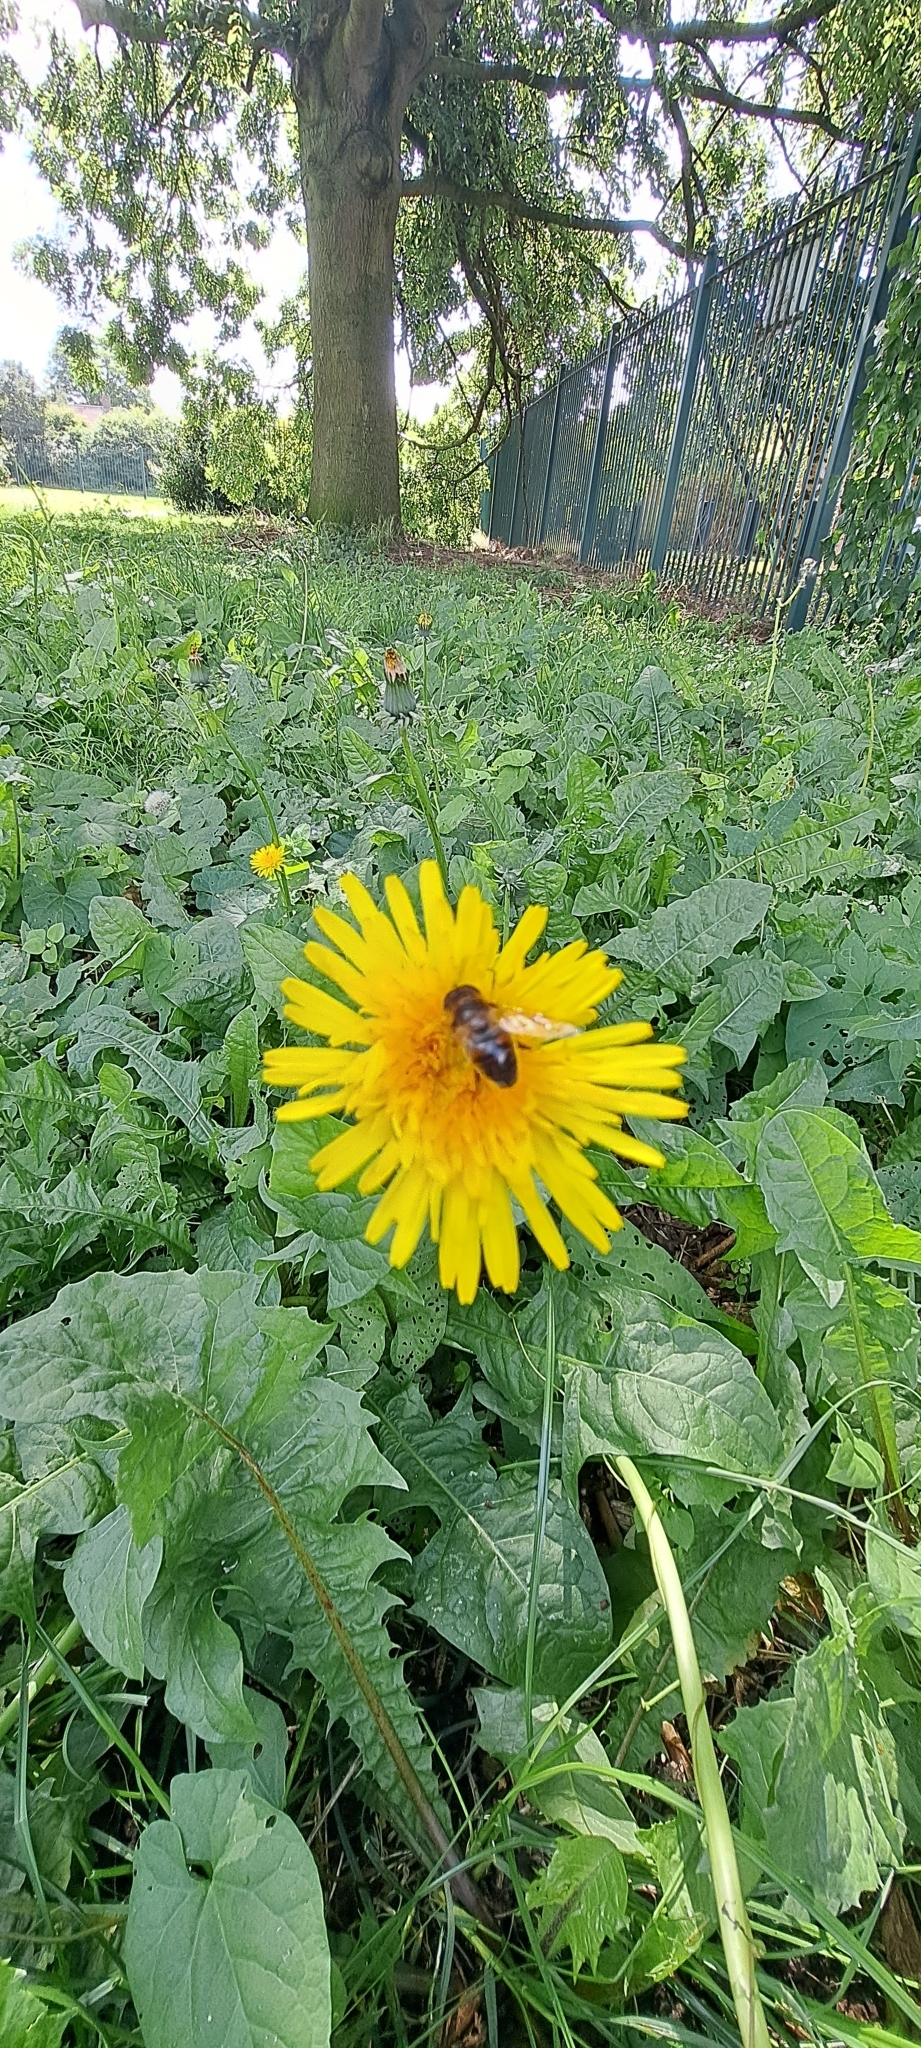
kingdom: Animalia
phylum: Arthropoda
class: Insecta
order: Diptera
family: Syrphidae
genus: Eristalis
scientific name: Eristalis
